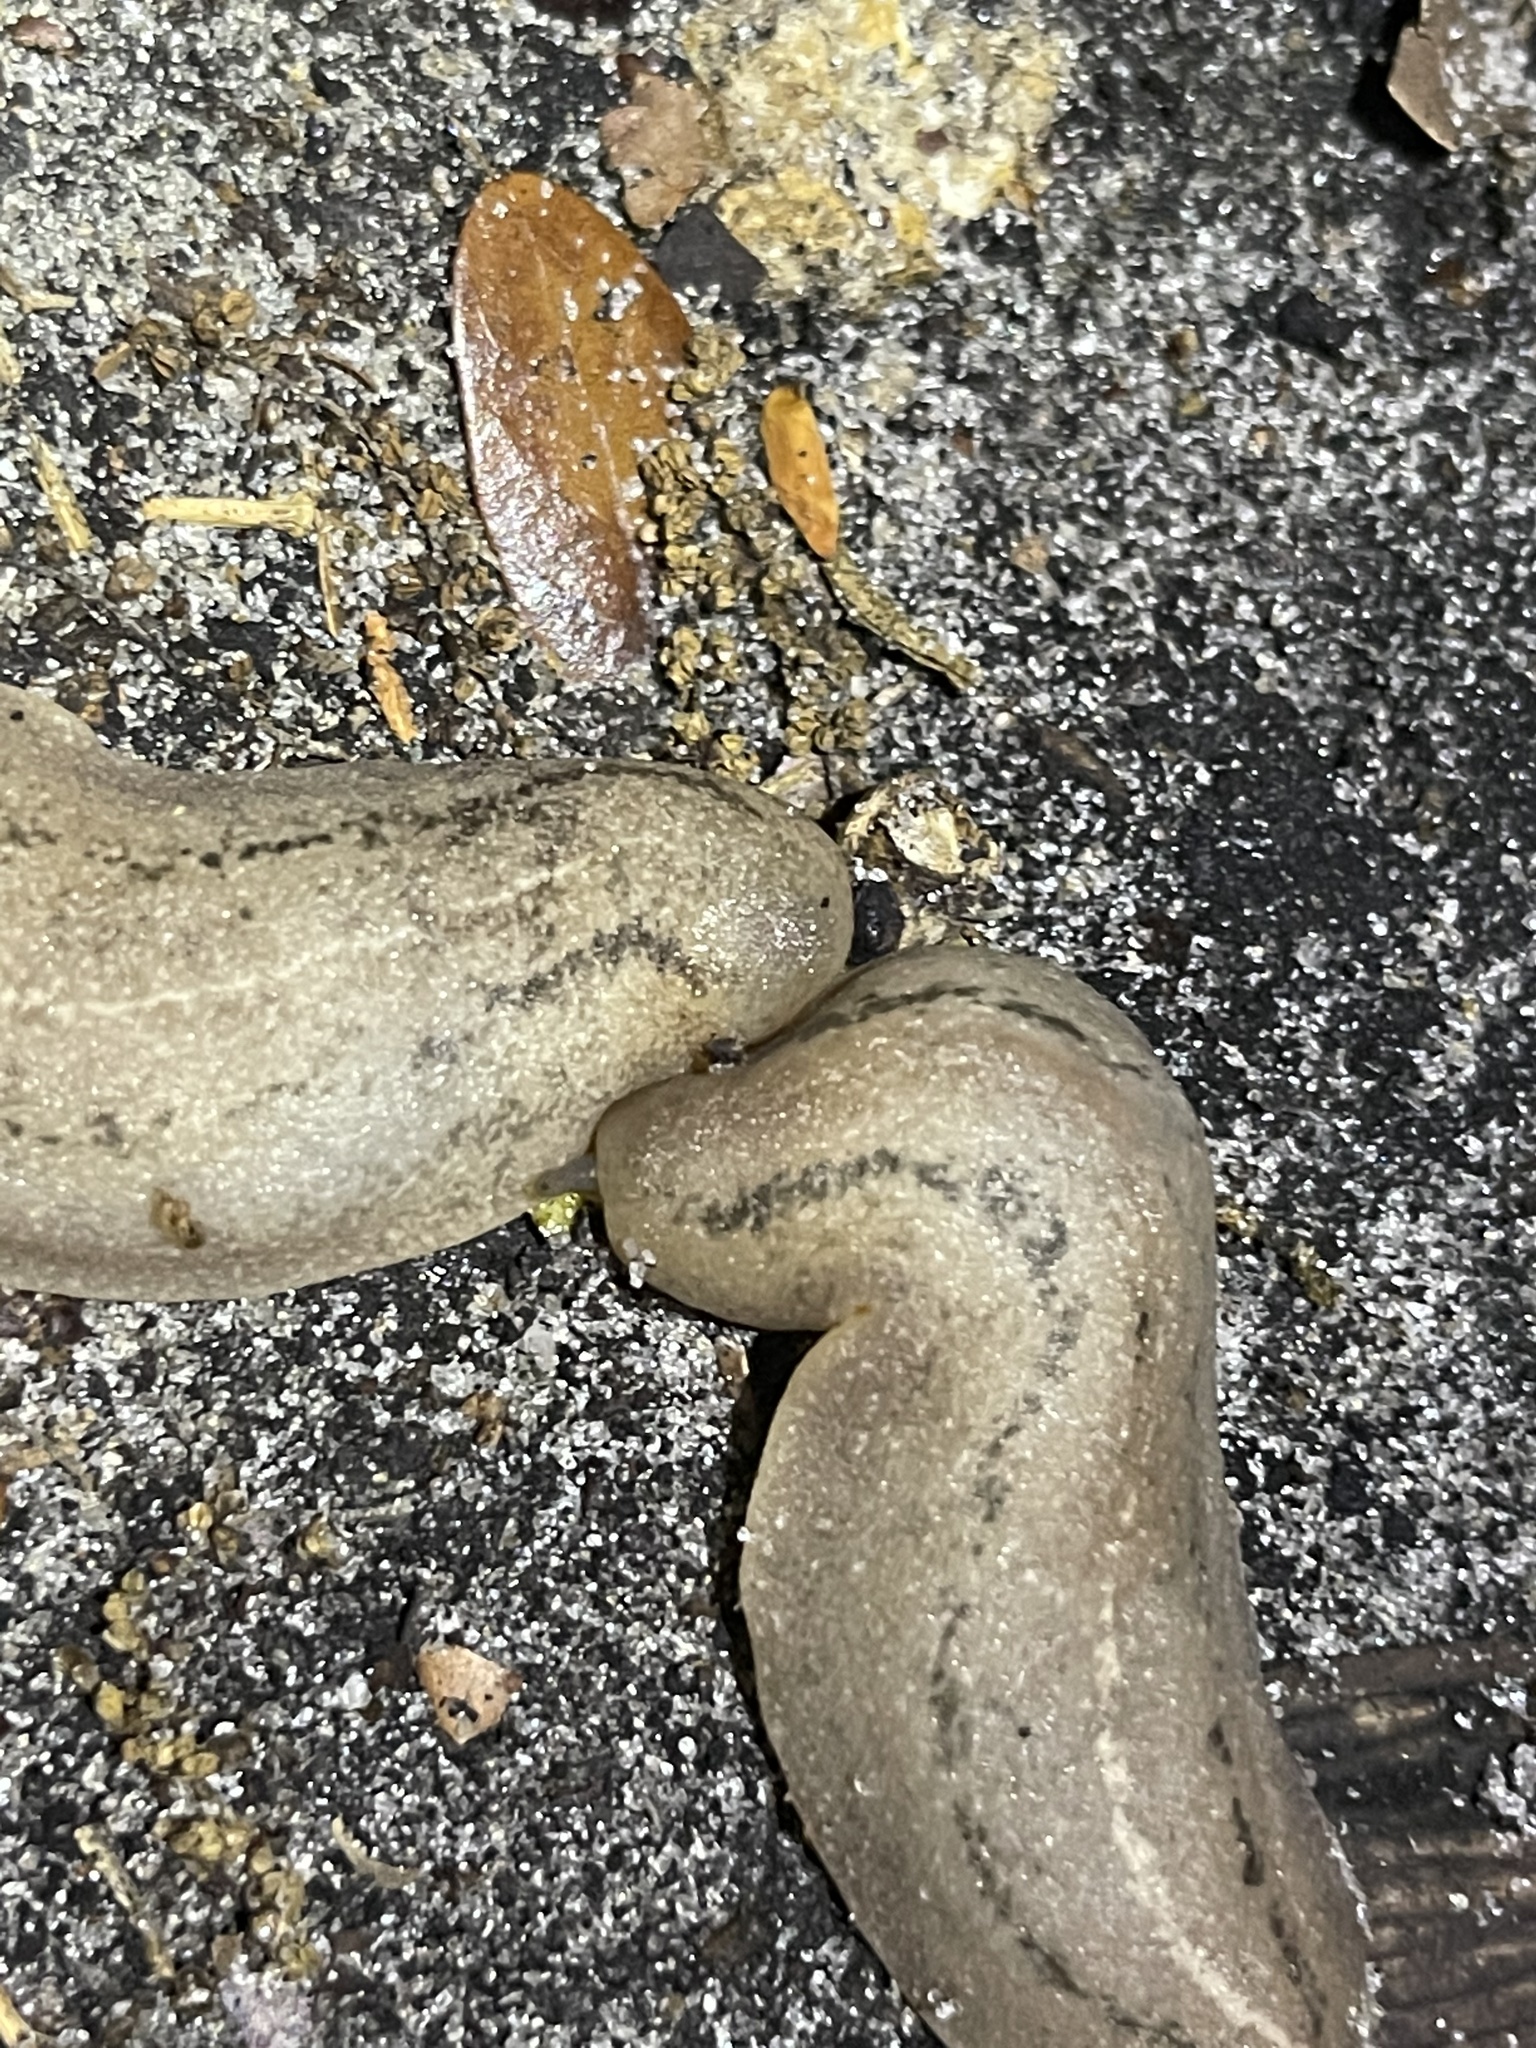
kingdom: Animalia
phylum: Mollusca
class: Gastropoda
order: Systellommatophora
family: Veronicellidae
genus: Leidyula
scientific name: Leidyula floridana
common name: Florida leatherleaf
